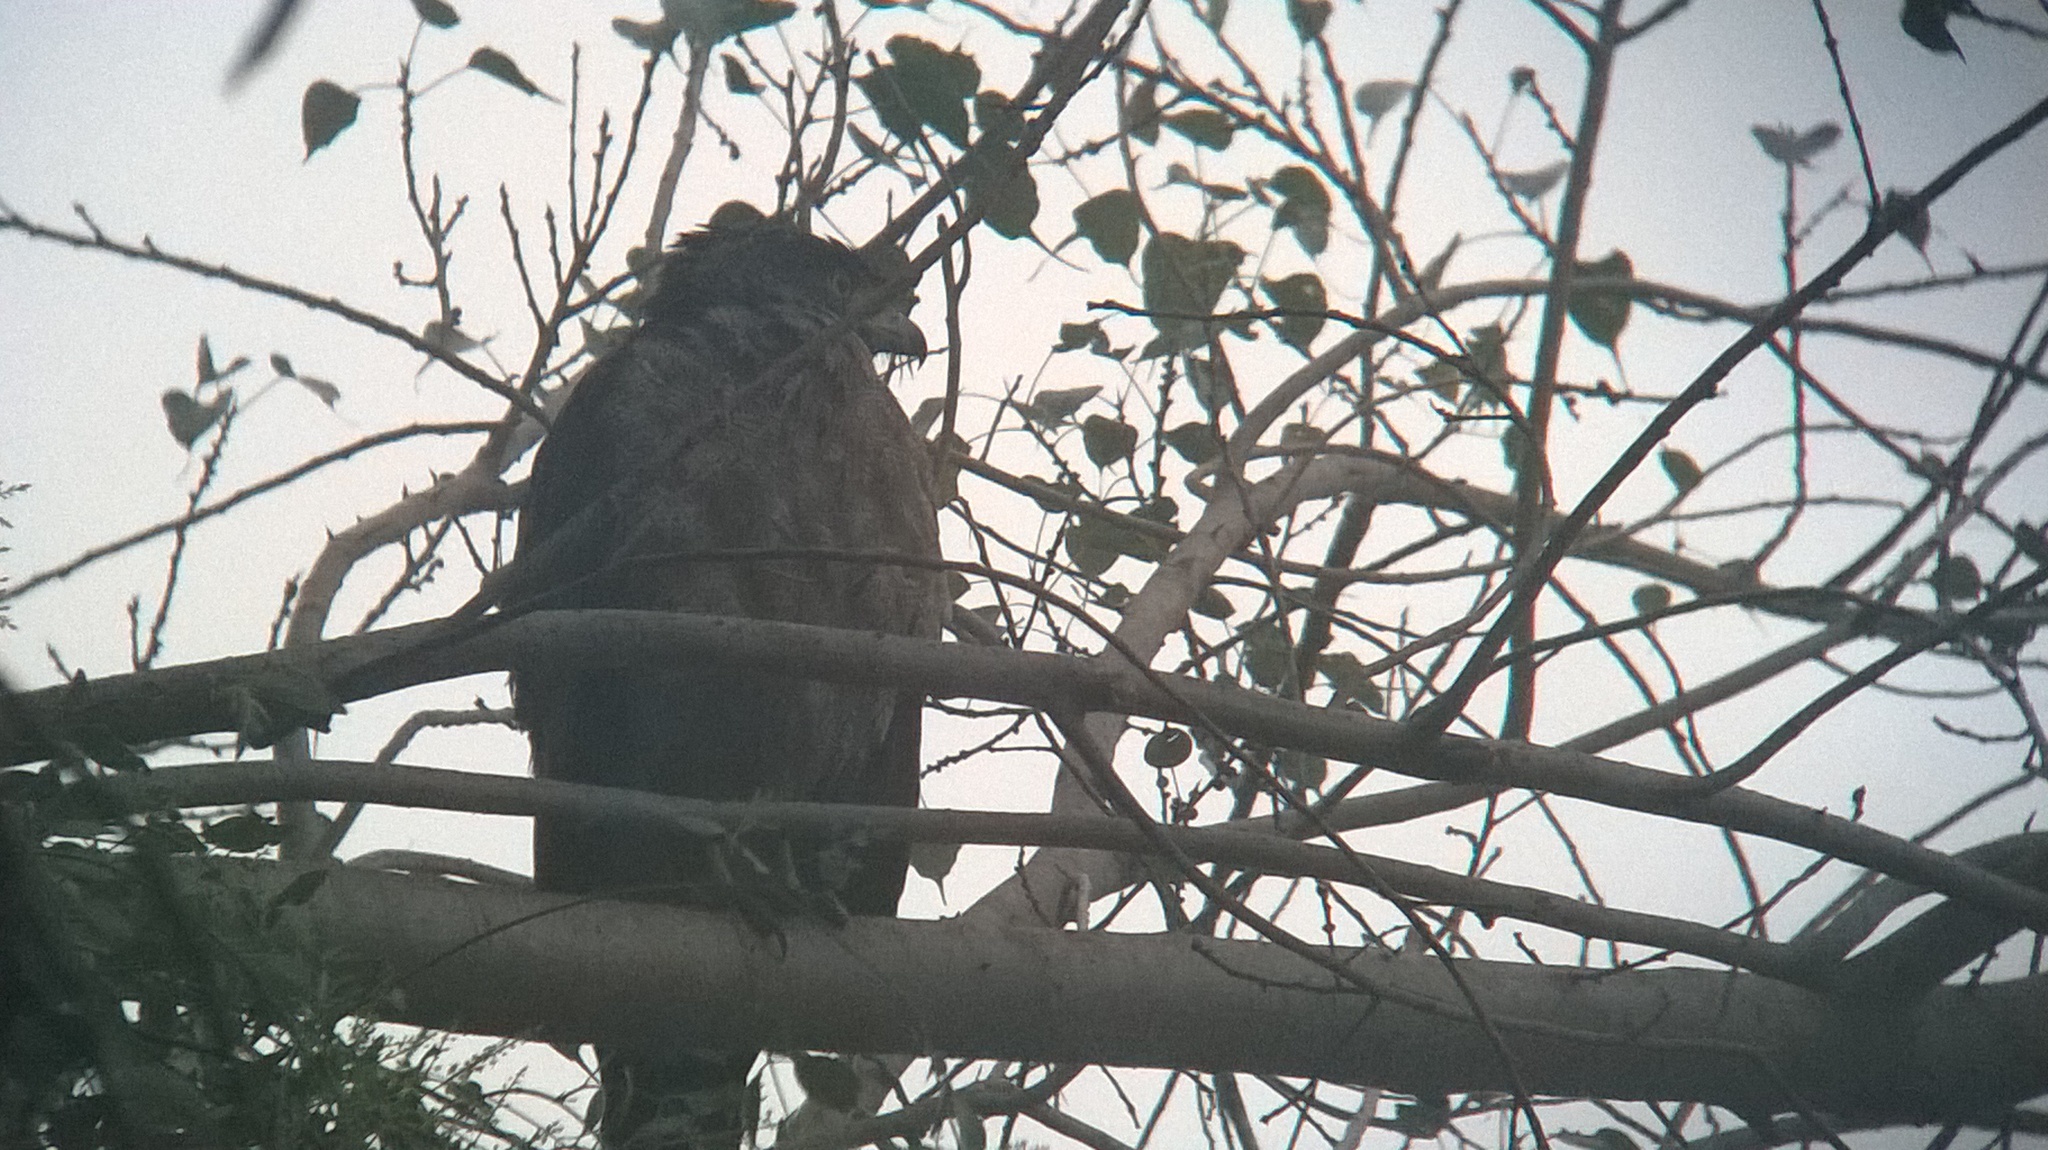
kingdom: Animalia
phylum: Chordata
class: Aves
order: Accipitriformes
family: Accipitridae
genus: Spilornis
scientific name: Spilornis cheela
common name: Crested serpent eagle
